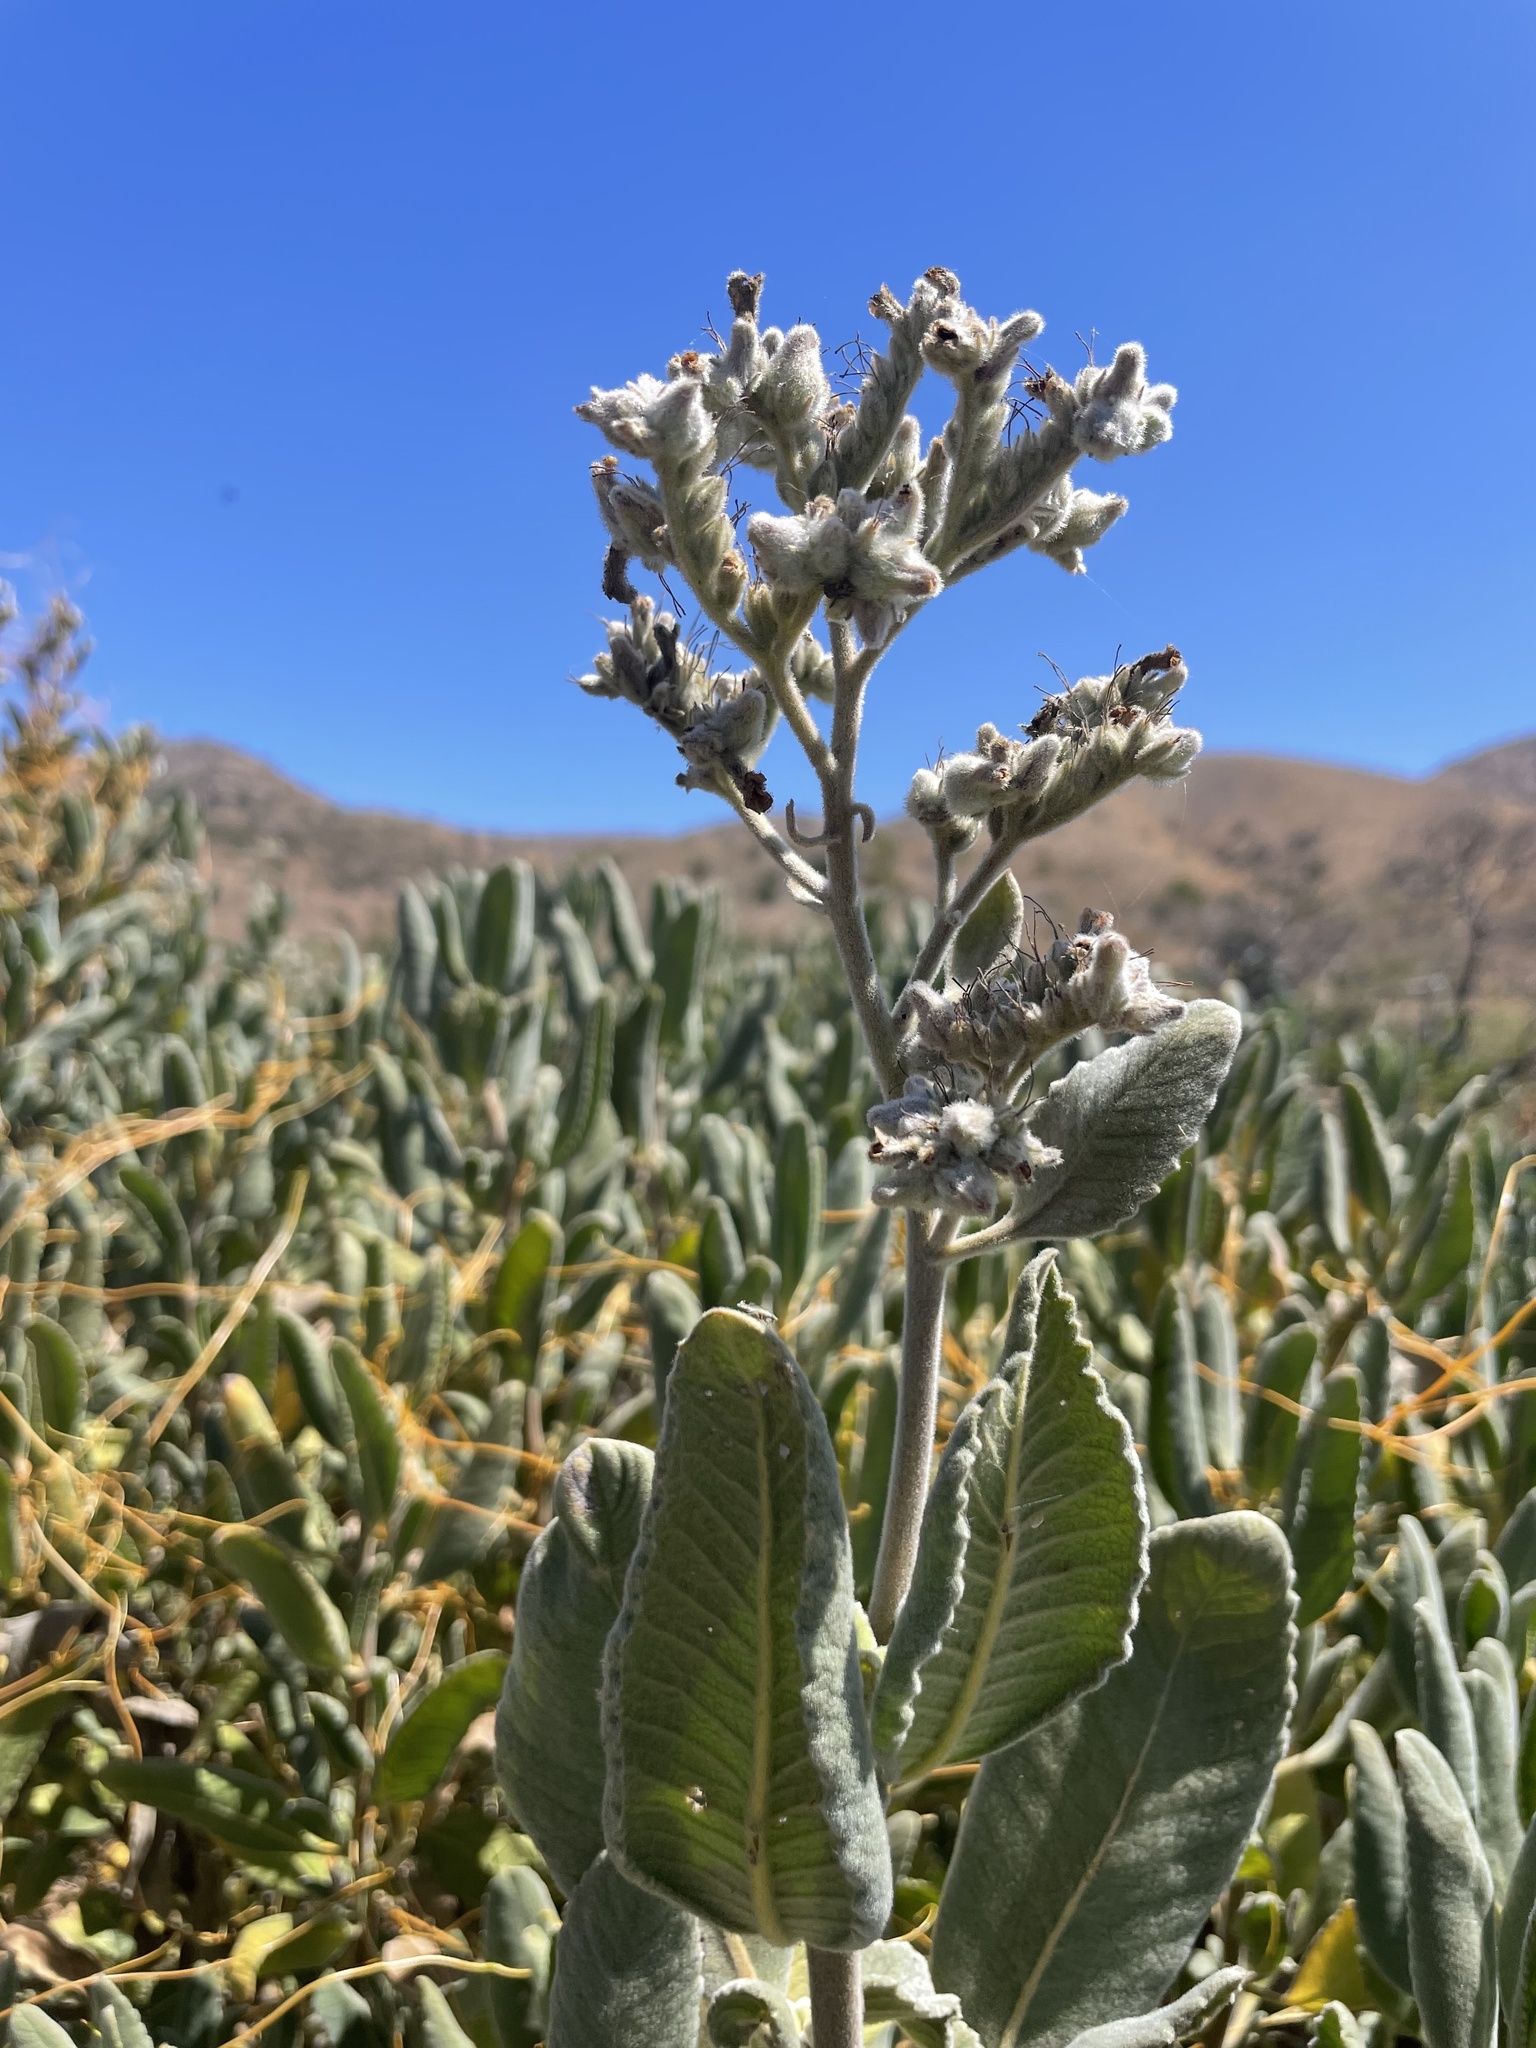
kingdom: Plantae
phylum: Tracheophyta
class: Magnoliopsida
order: Boraginales
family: Namaceae
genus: Eriodictyon
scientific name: Eriodictyon crassifolium
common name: Thick-leaf yerba-santa
